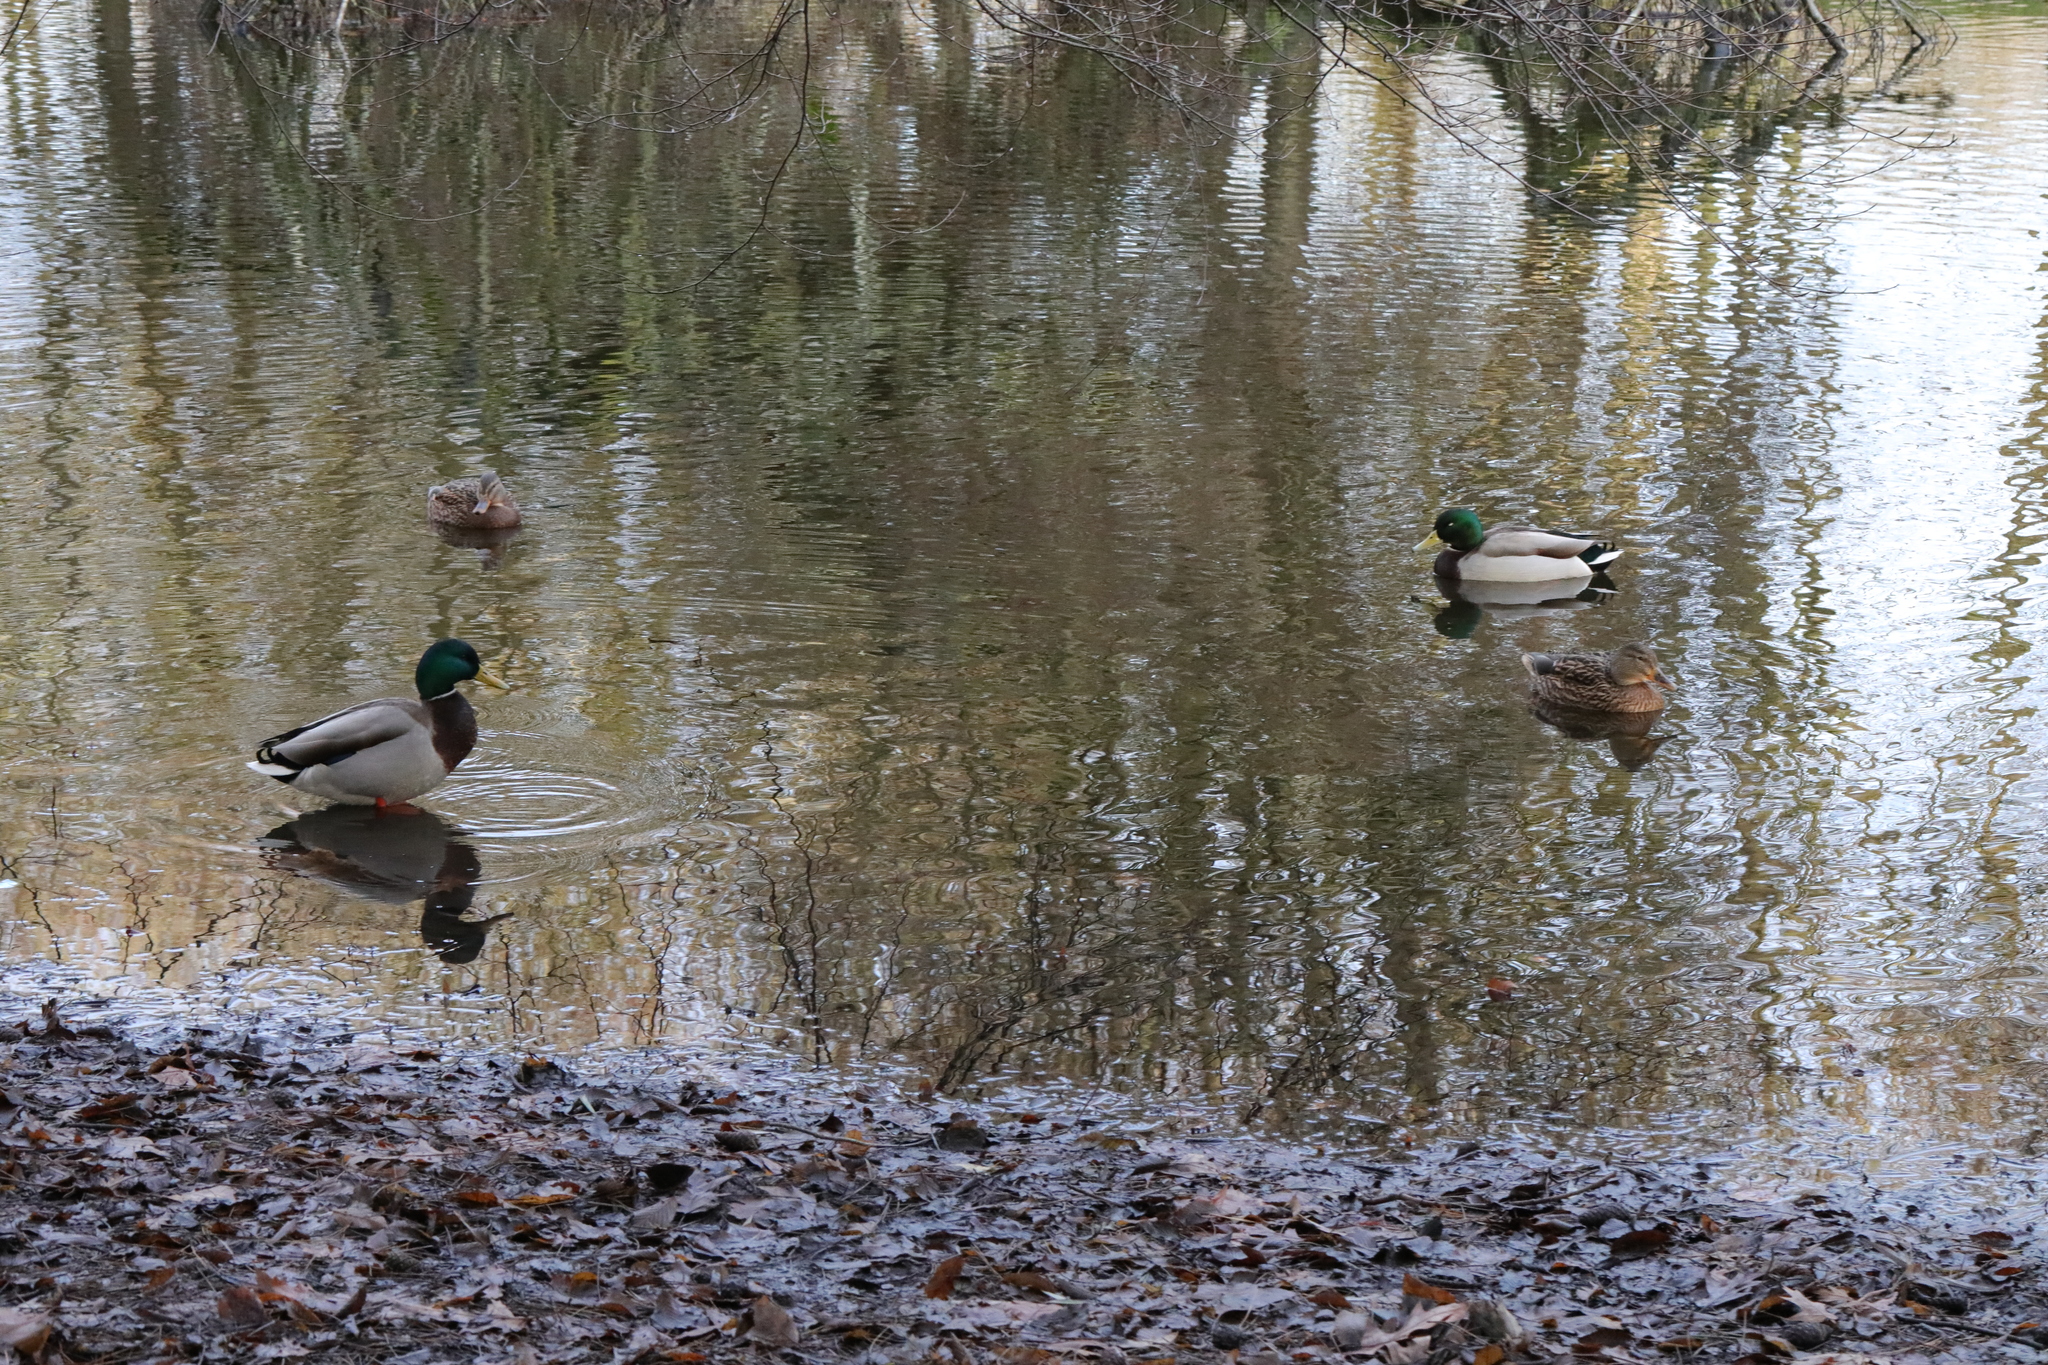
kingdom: Animalia
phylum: Chordata
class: Aves
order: Anseriformes
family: Anatidae
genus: Anas
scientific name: Anas platyrhynchos
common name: Mallard
